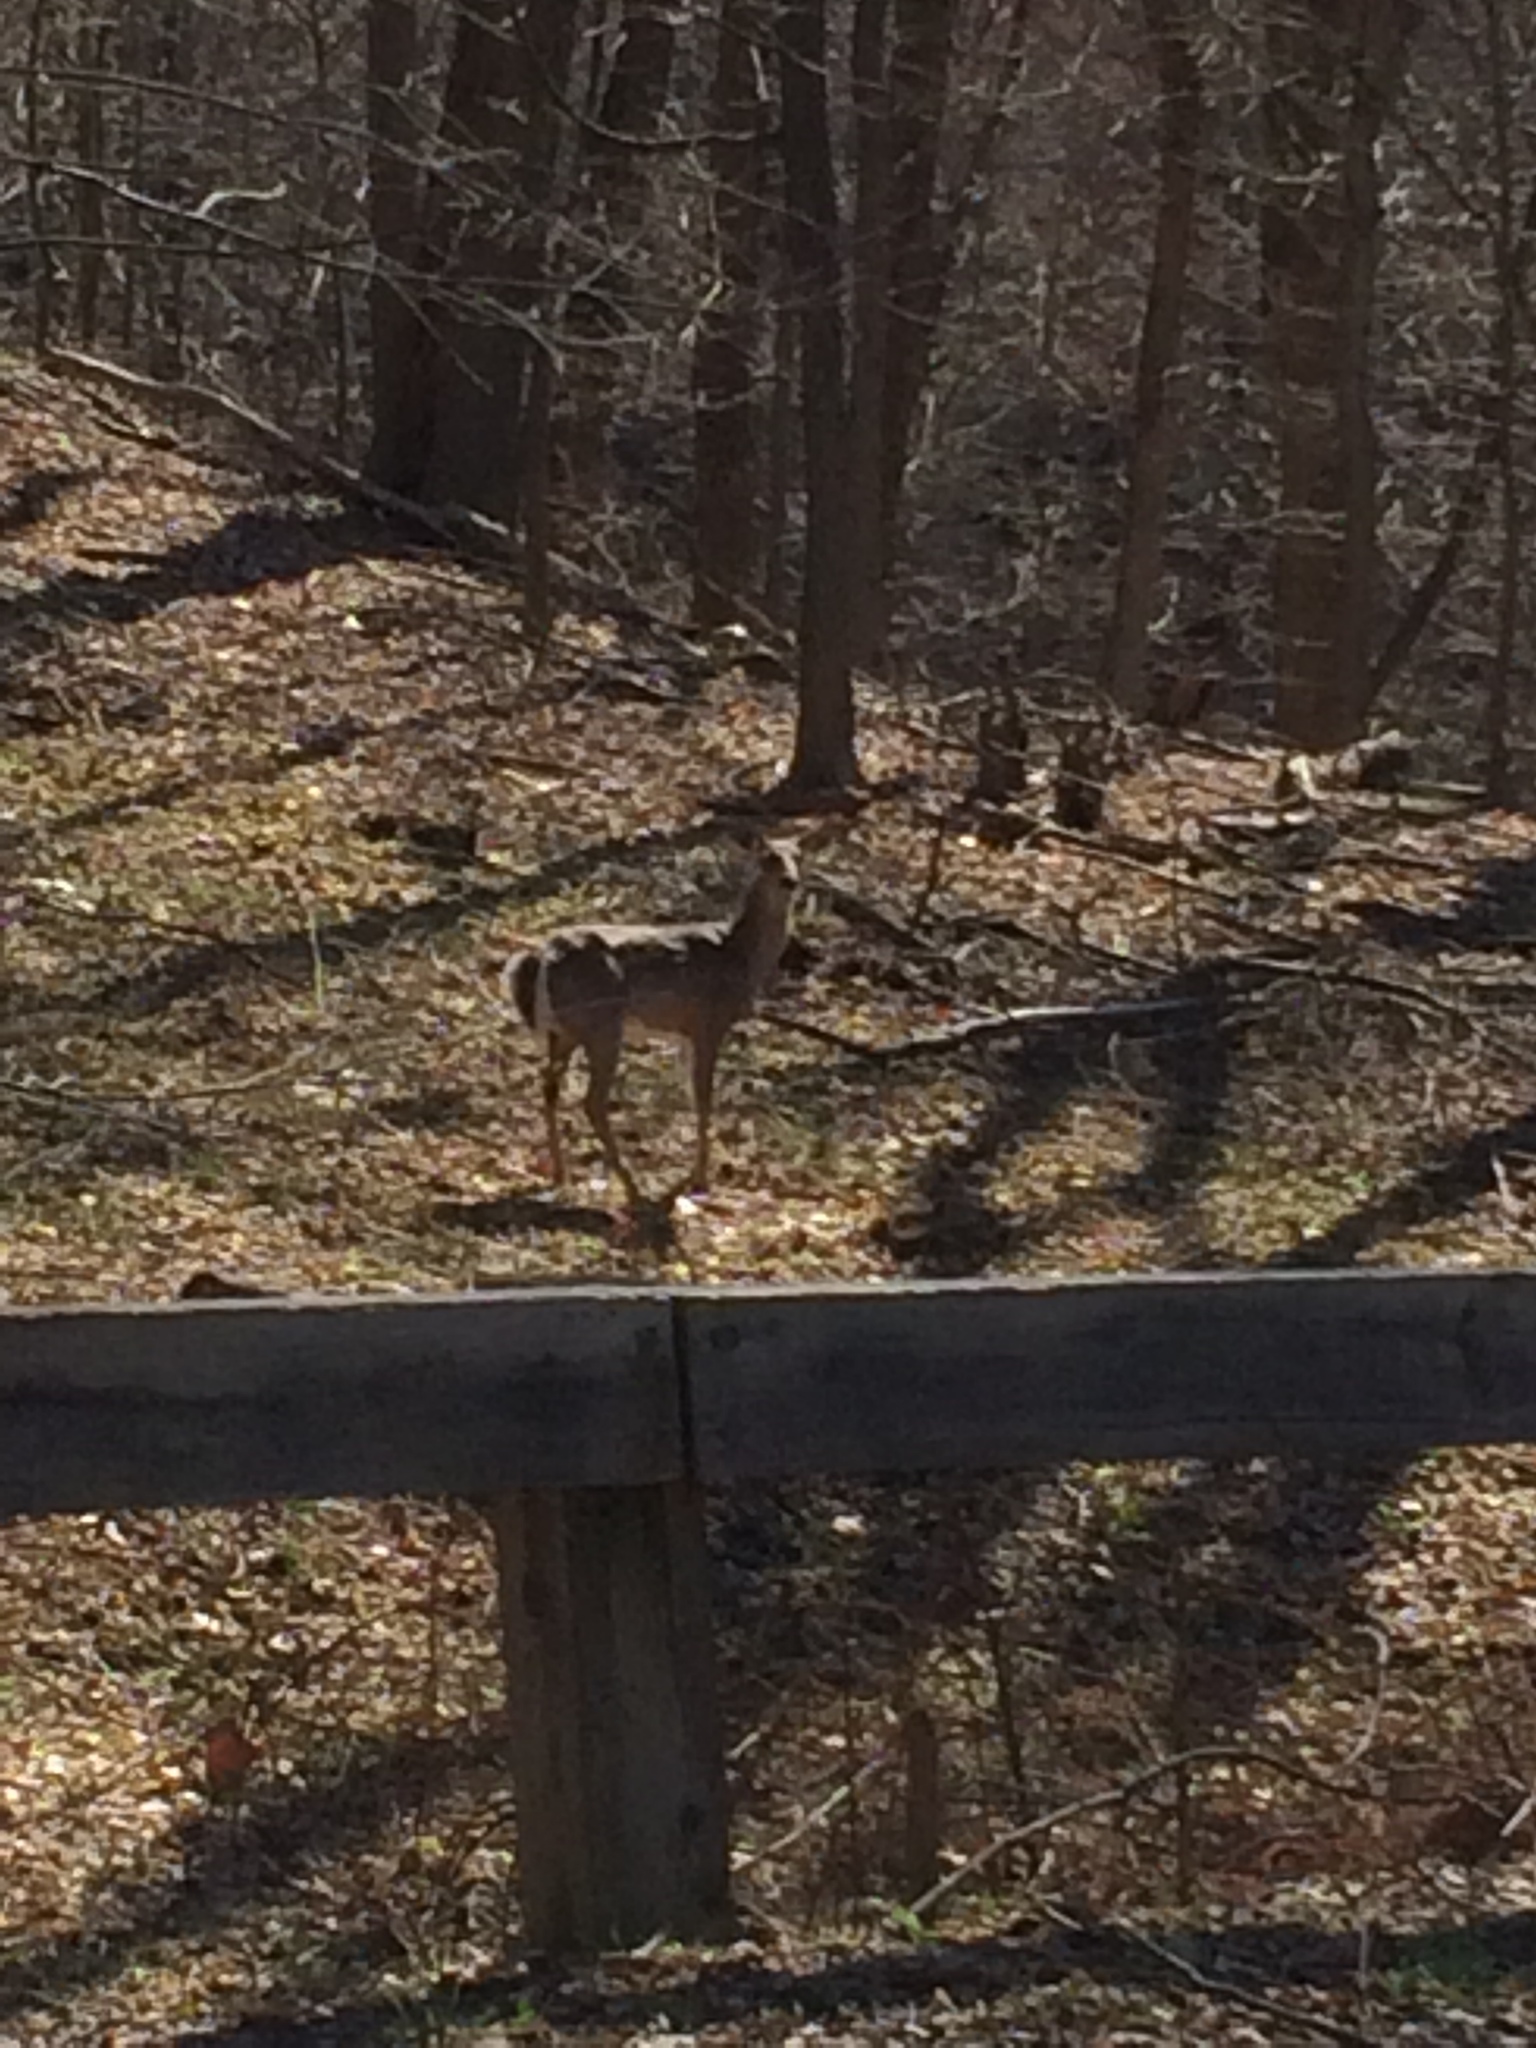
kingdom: Animalia
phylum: Chordata
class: Mammalia
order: Artiodactyla
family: Cervidae
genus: Odocoileus
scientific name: Odocoileus virginianus
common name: White-tailed deer
